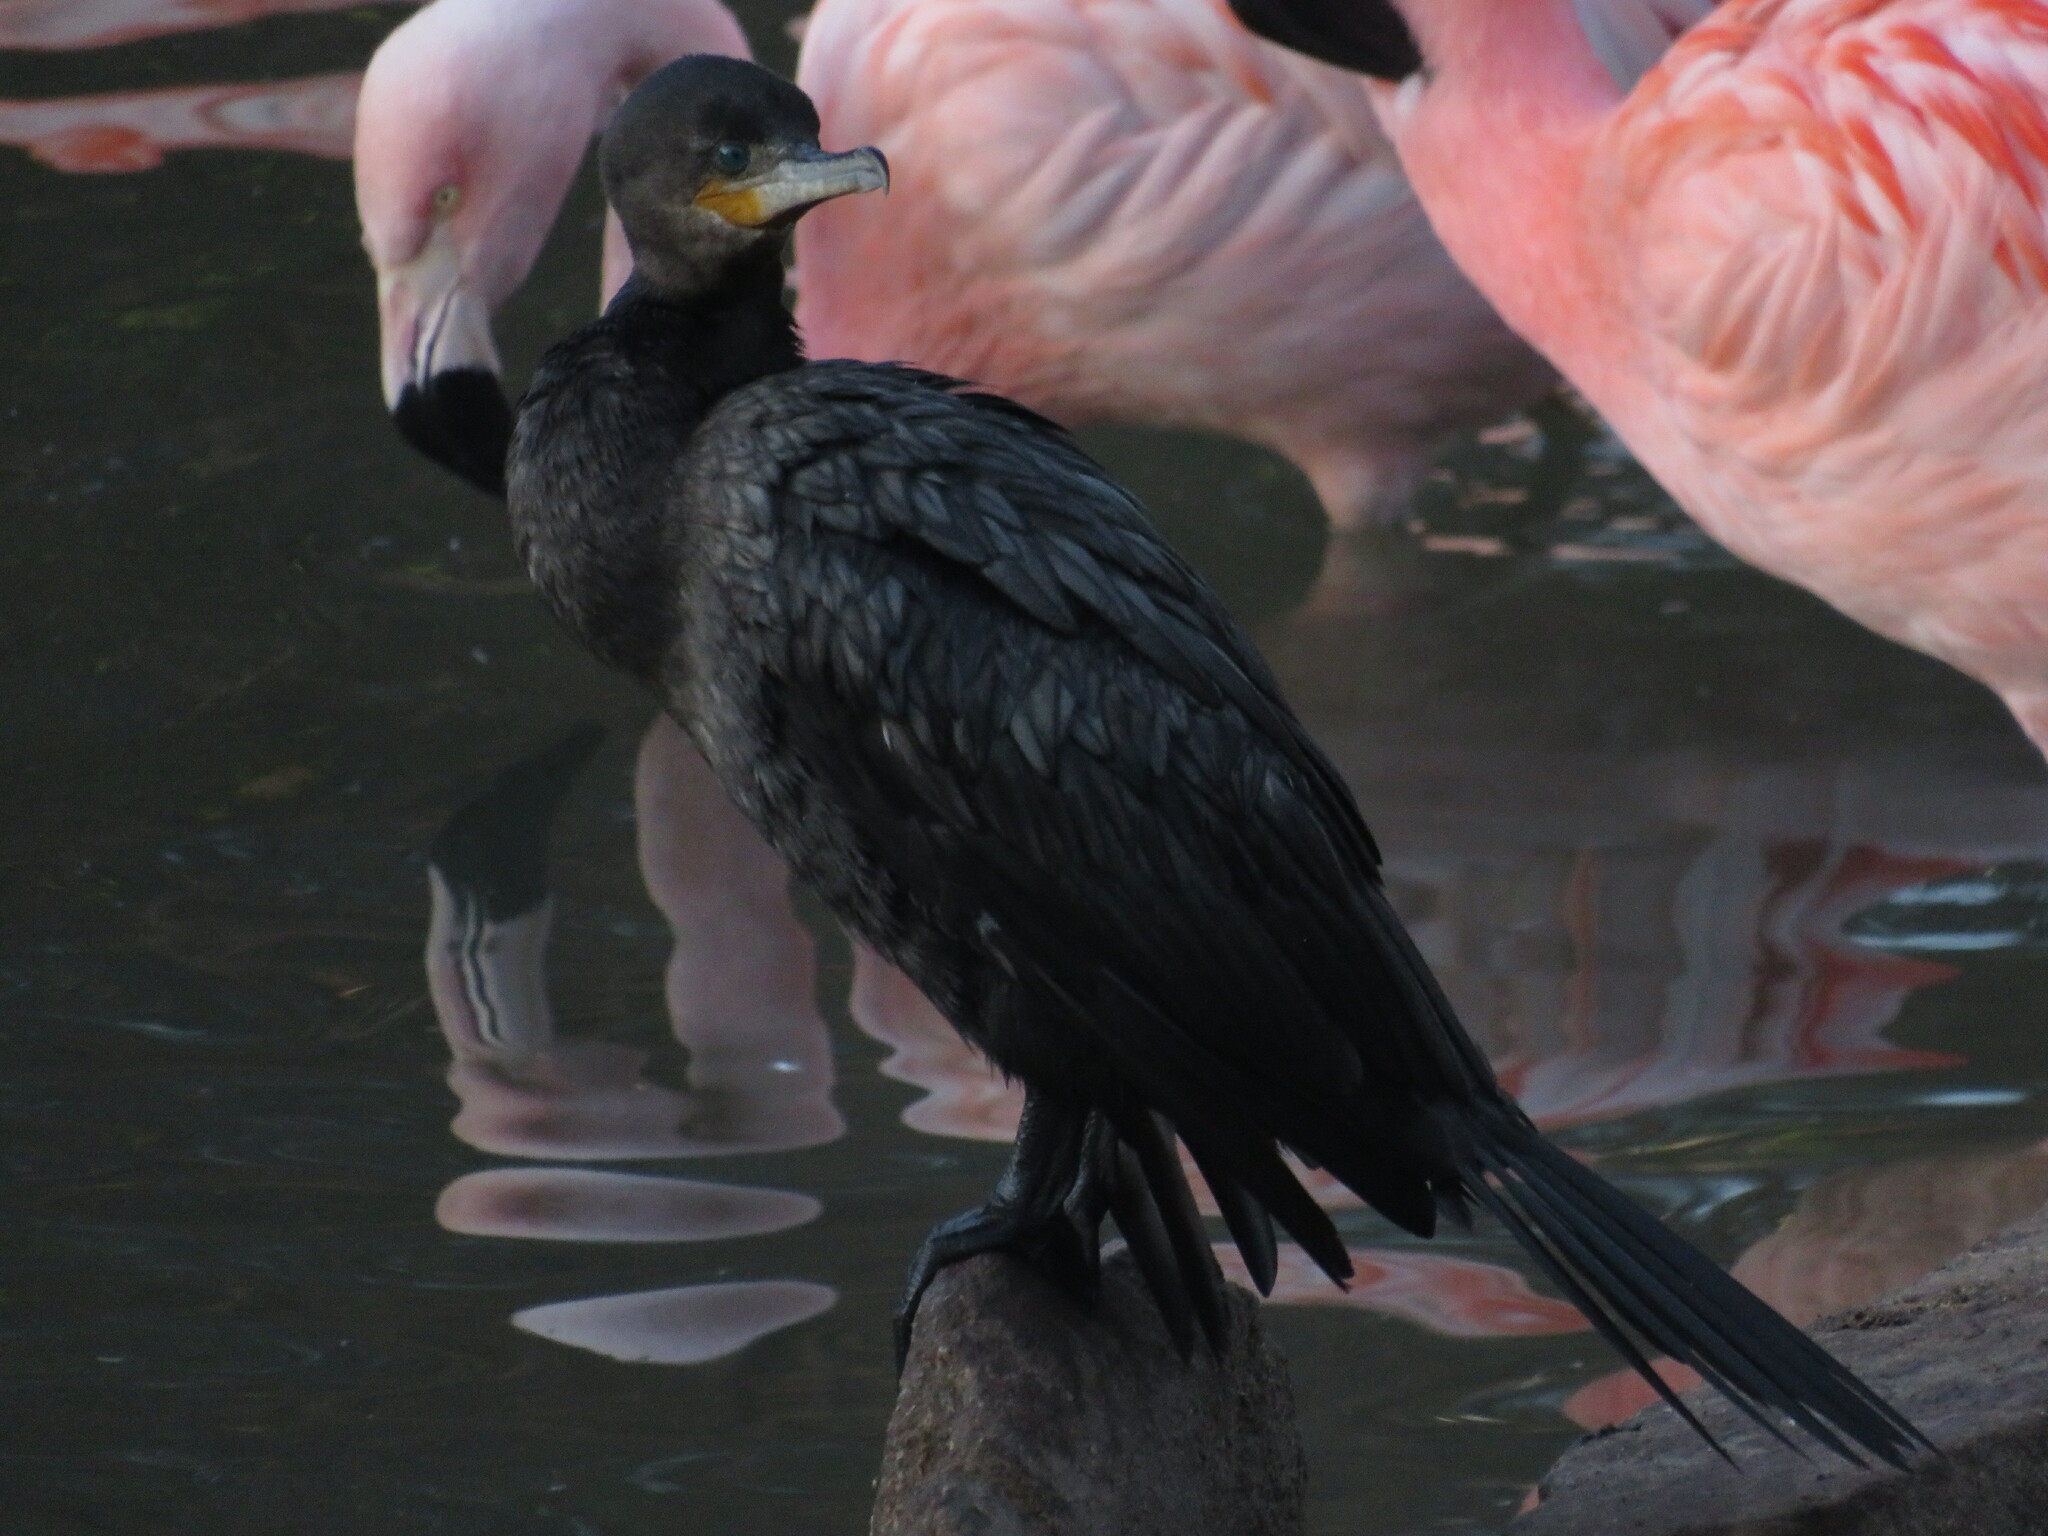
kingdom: Animalia
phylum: Chordata
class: Aves
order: Suliformes
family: Phalacrocoracidae
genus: Phalacrocorax
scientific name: Phalacrocorax brasilianus
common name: Neotropic cormorant
